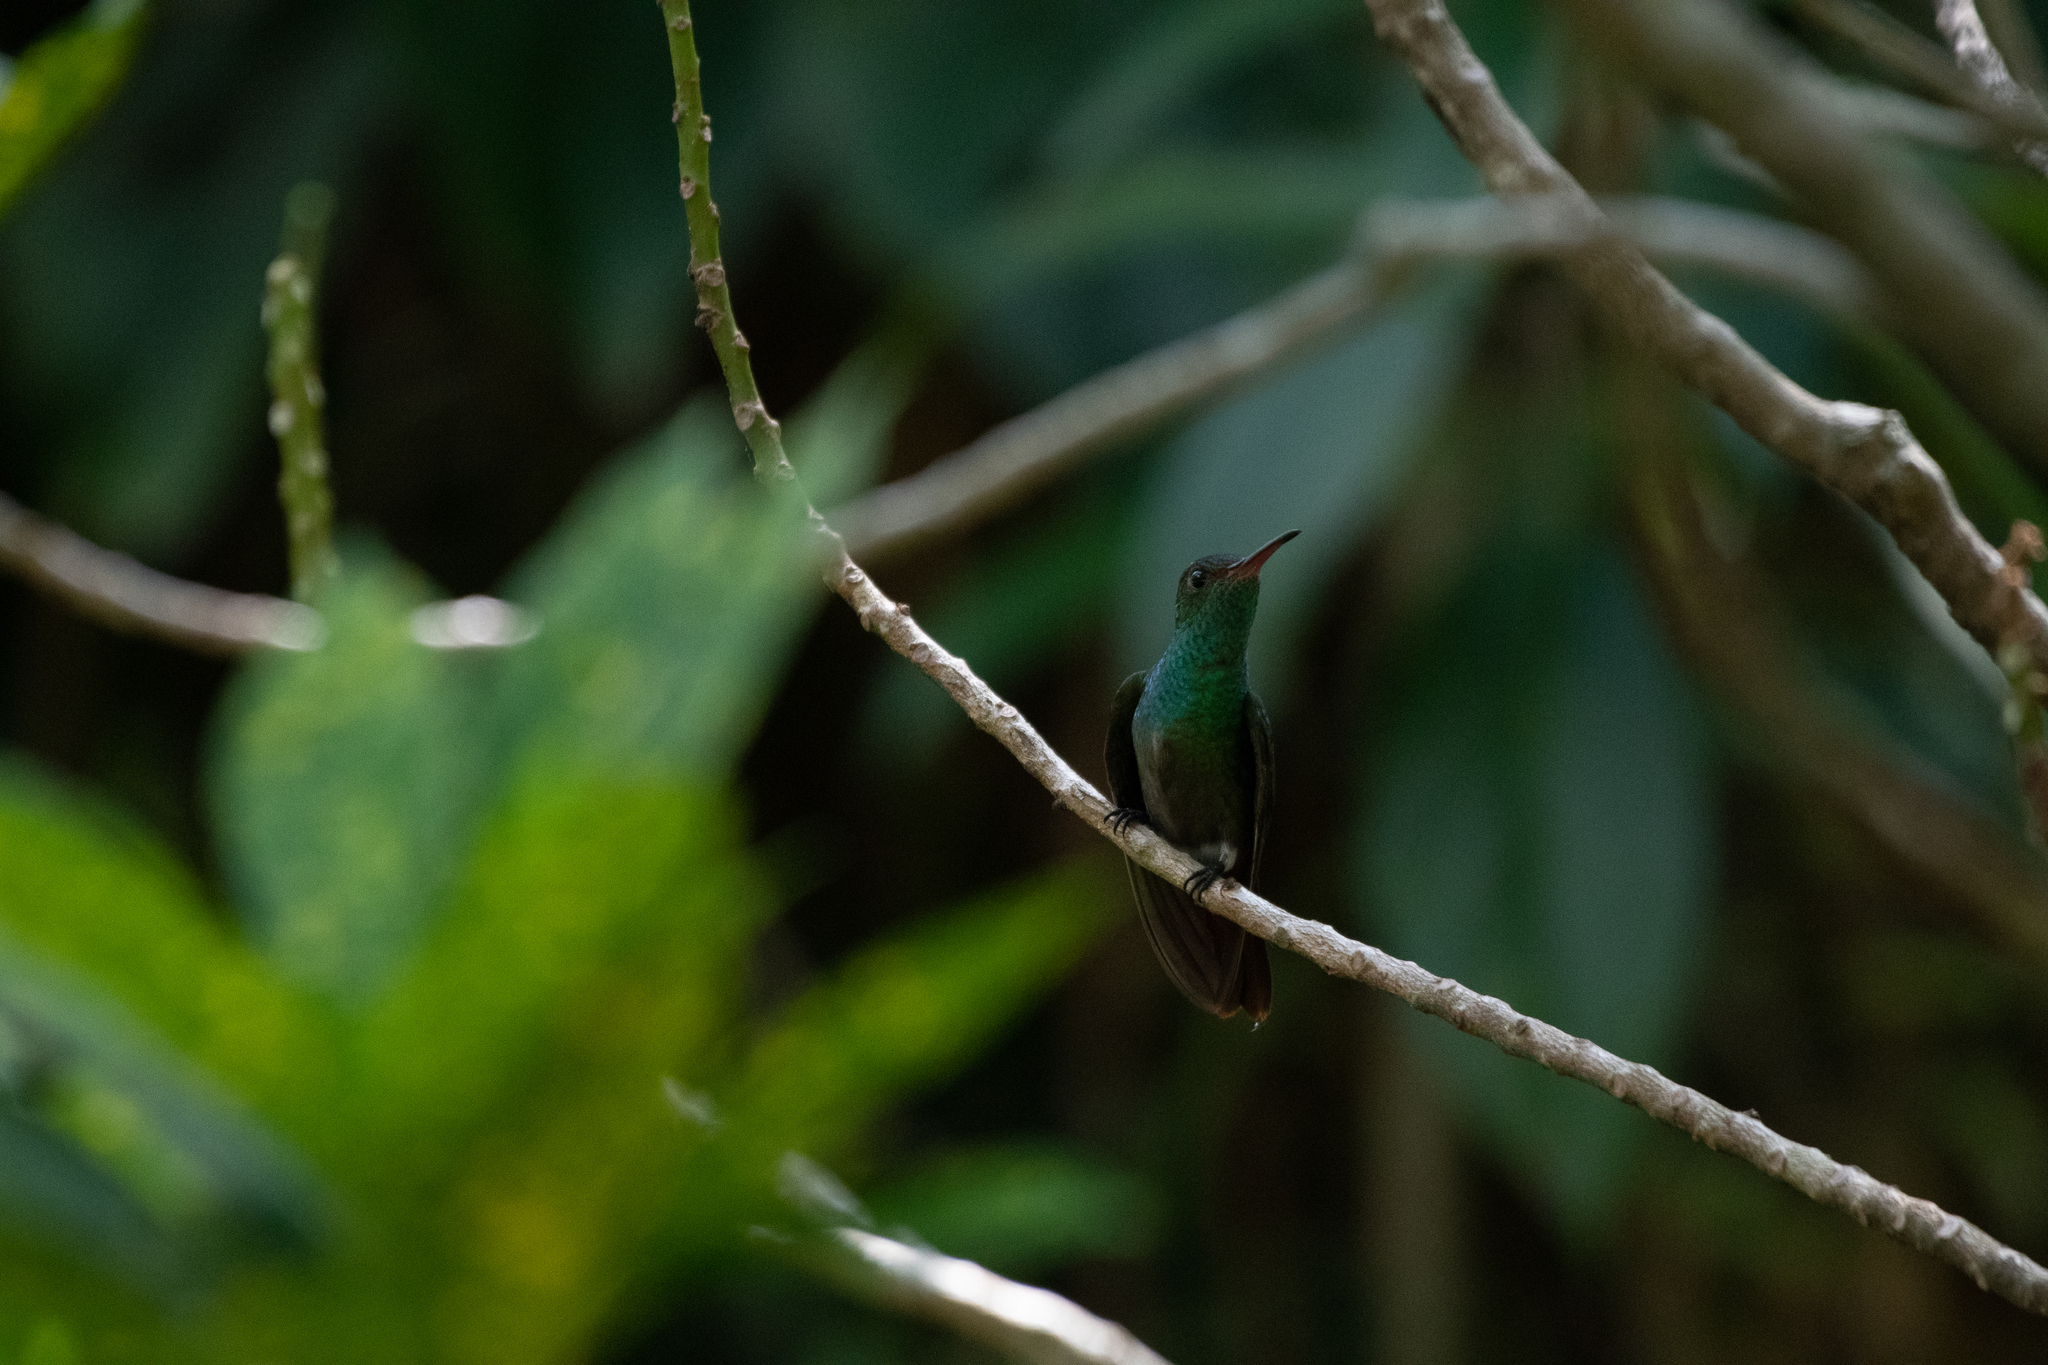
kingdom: Animalia
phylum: Chordata
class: Aves
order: Apodiformes
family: Trochilidae
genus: Amazilia
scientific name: Amazilia tzacatl
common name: Rufous-tailed hummingbird
